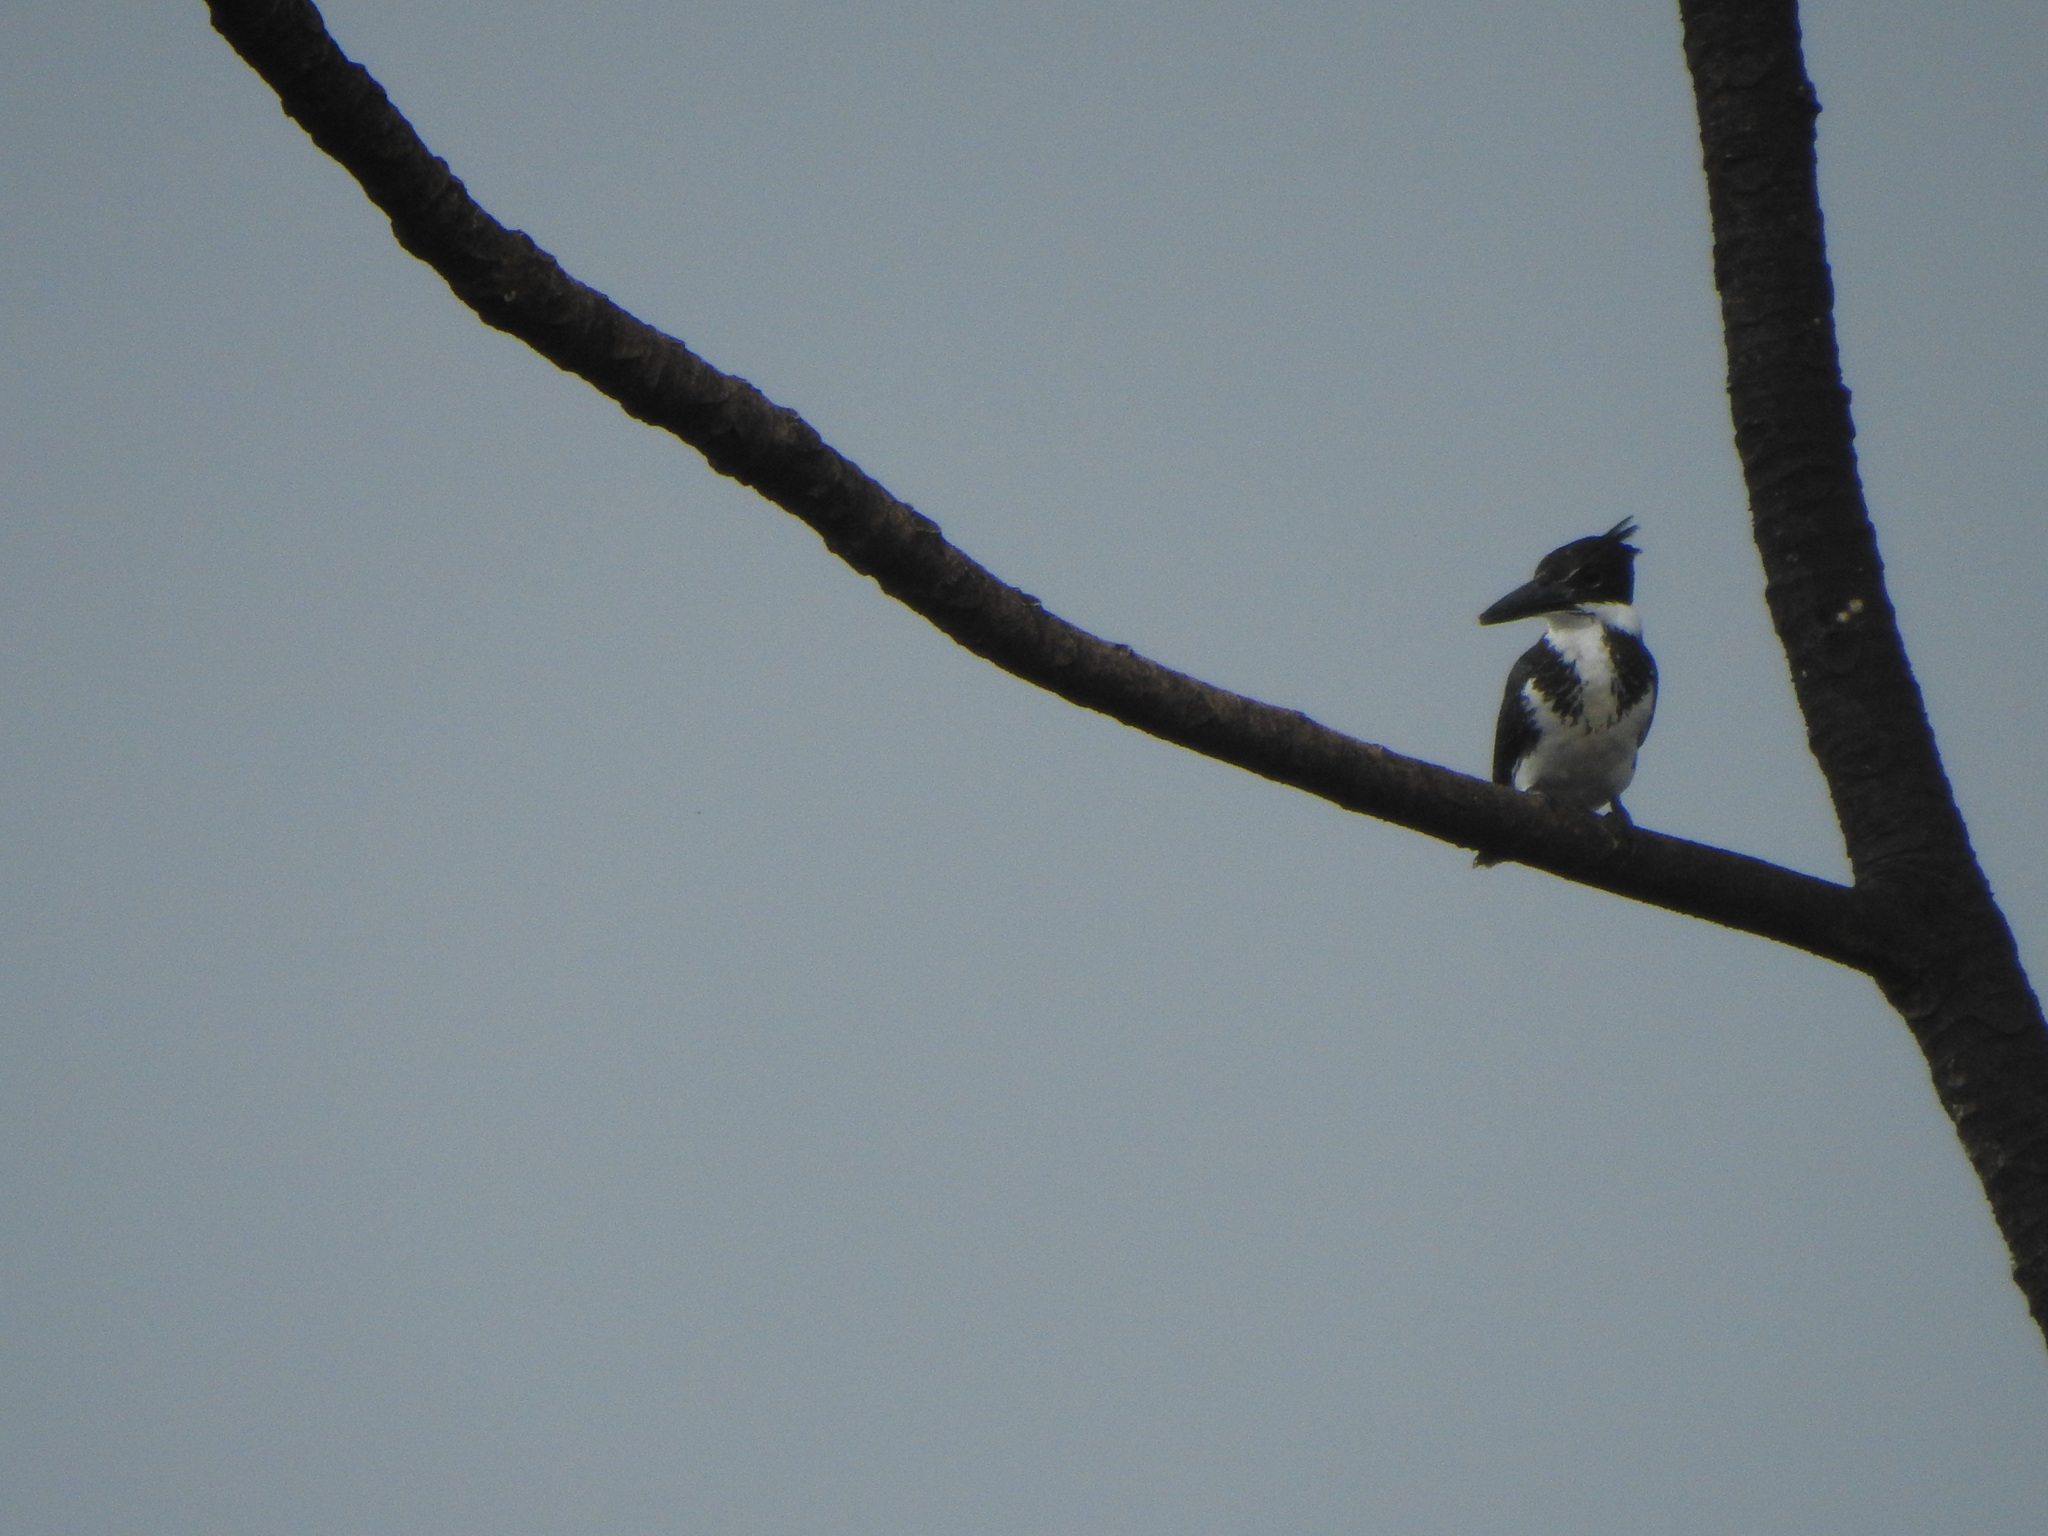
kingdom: Animalia
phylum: Chordata
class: Aves
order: Coraciiformes
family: Alcedinidae
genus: Chloroceryle
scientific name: Chloroceryle amazona
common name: Amazon kingfisher
